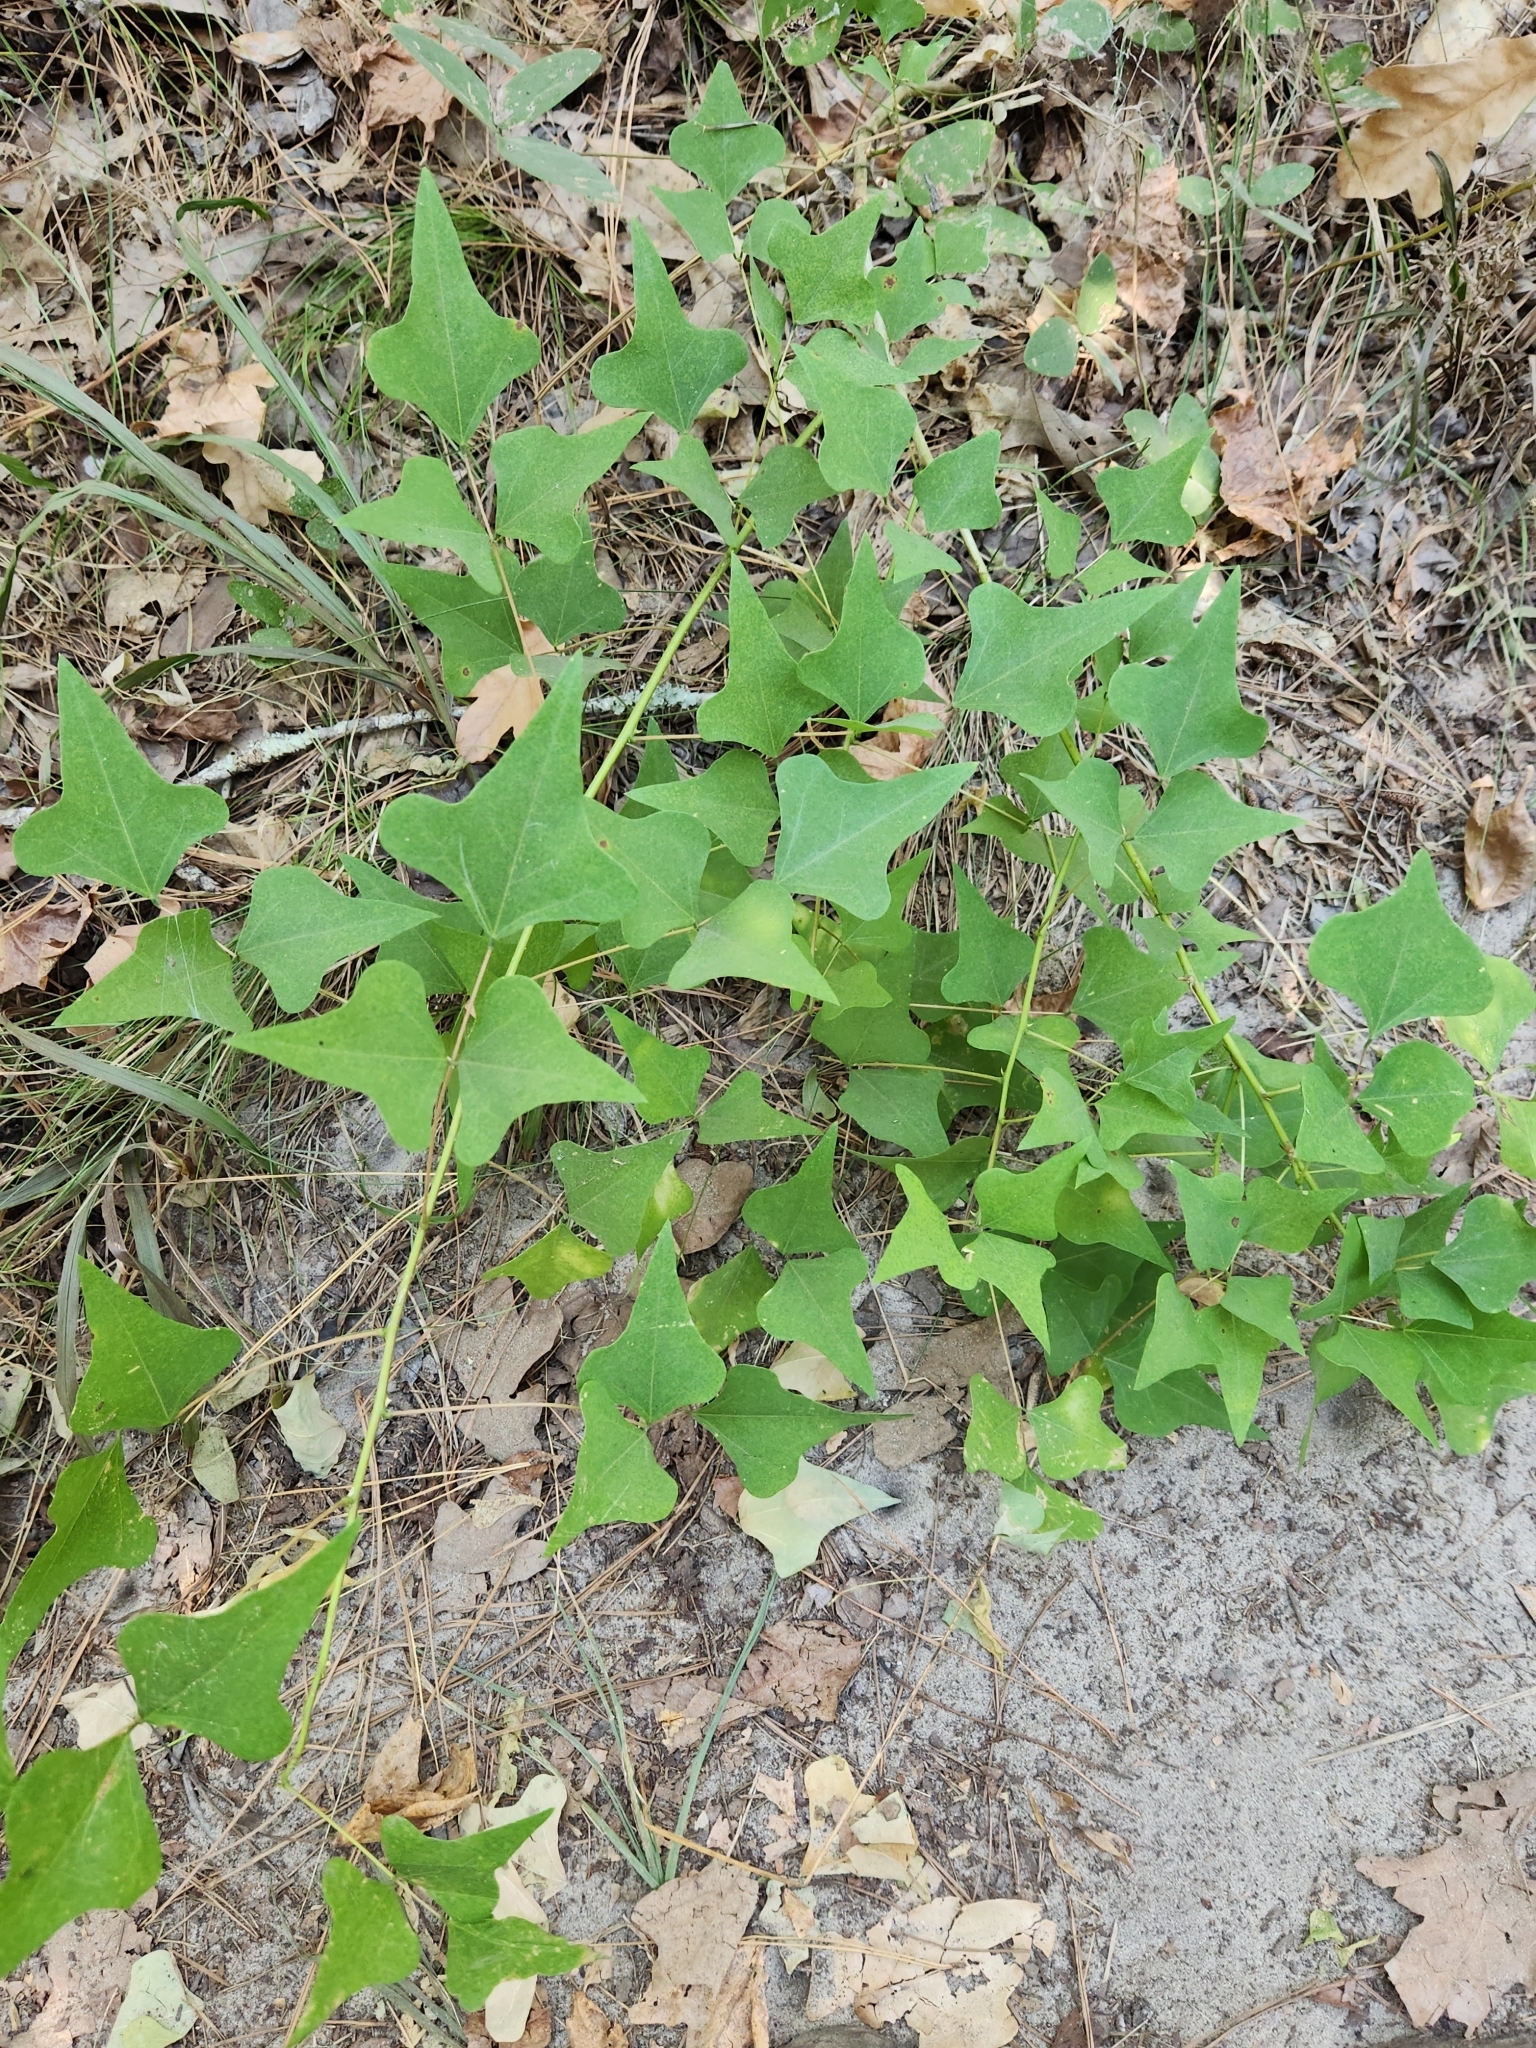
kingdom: Plantae
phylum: Tracheophyta
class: Magnoliopsida
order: Fabales
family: Fabaceae
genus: Erythrina
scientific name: Erythrina herbacea
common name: Coral-bean
